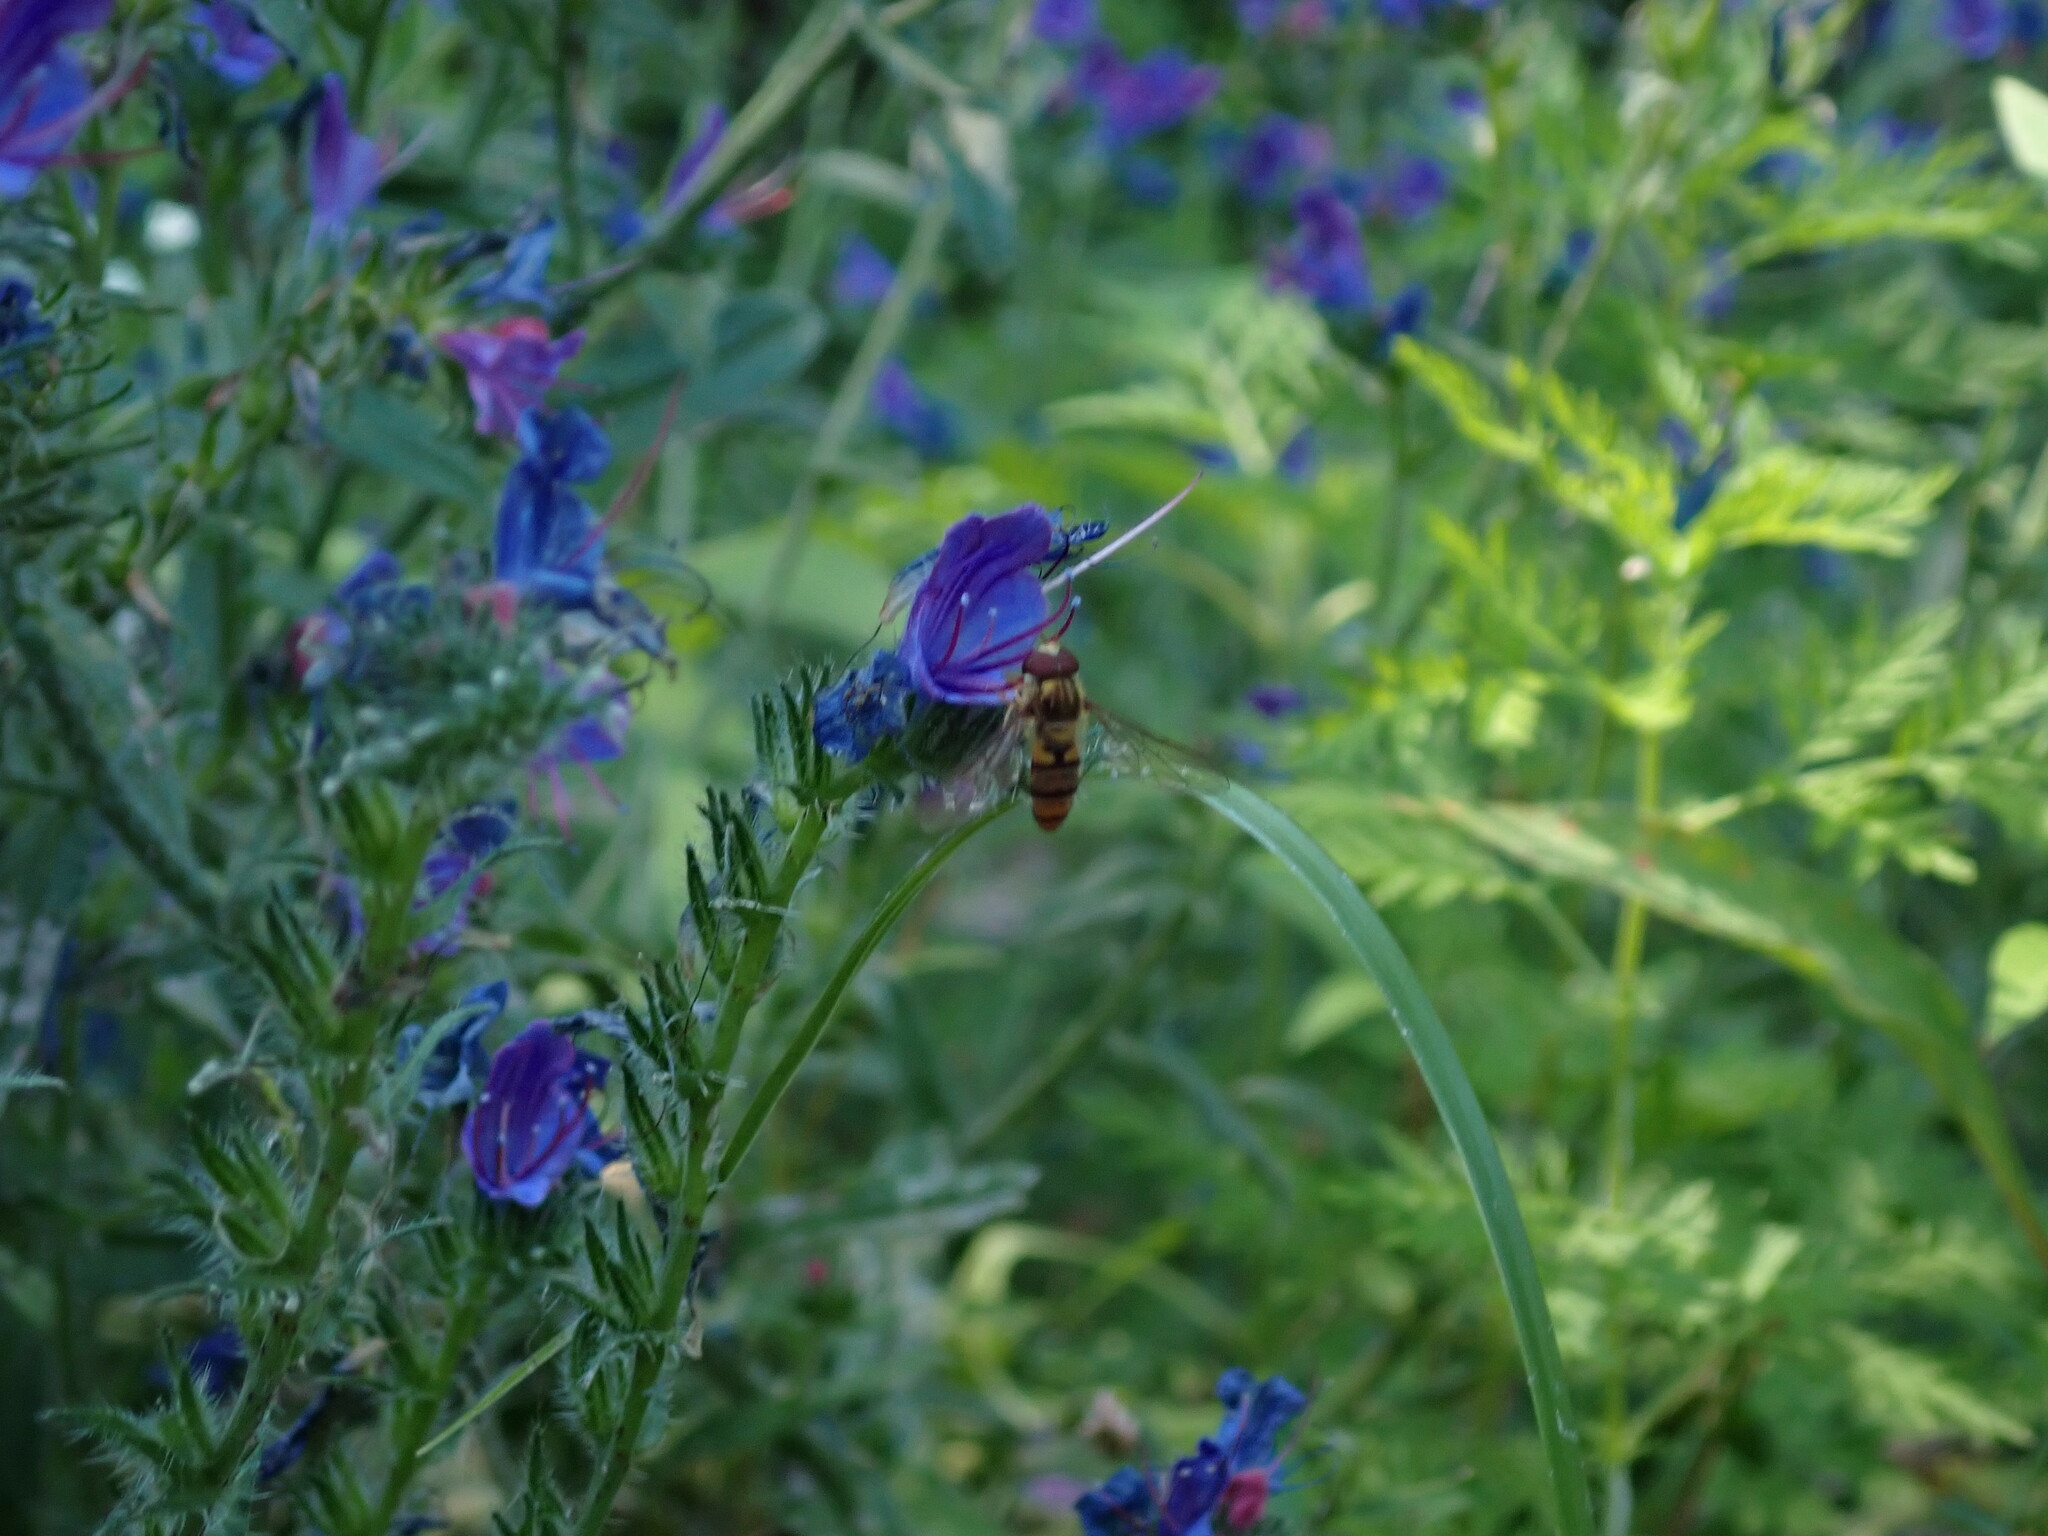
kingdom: Animalia
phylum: Arthropoda
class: Insecta
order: Diptera
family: Syrphidae
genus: Episyrphus
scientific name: Episyrphus balteatus
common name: Marmalade hoverfly
